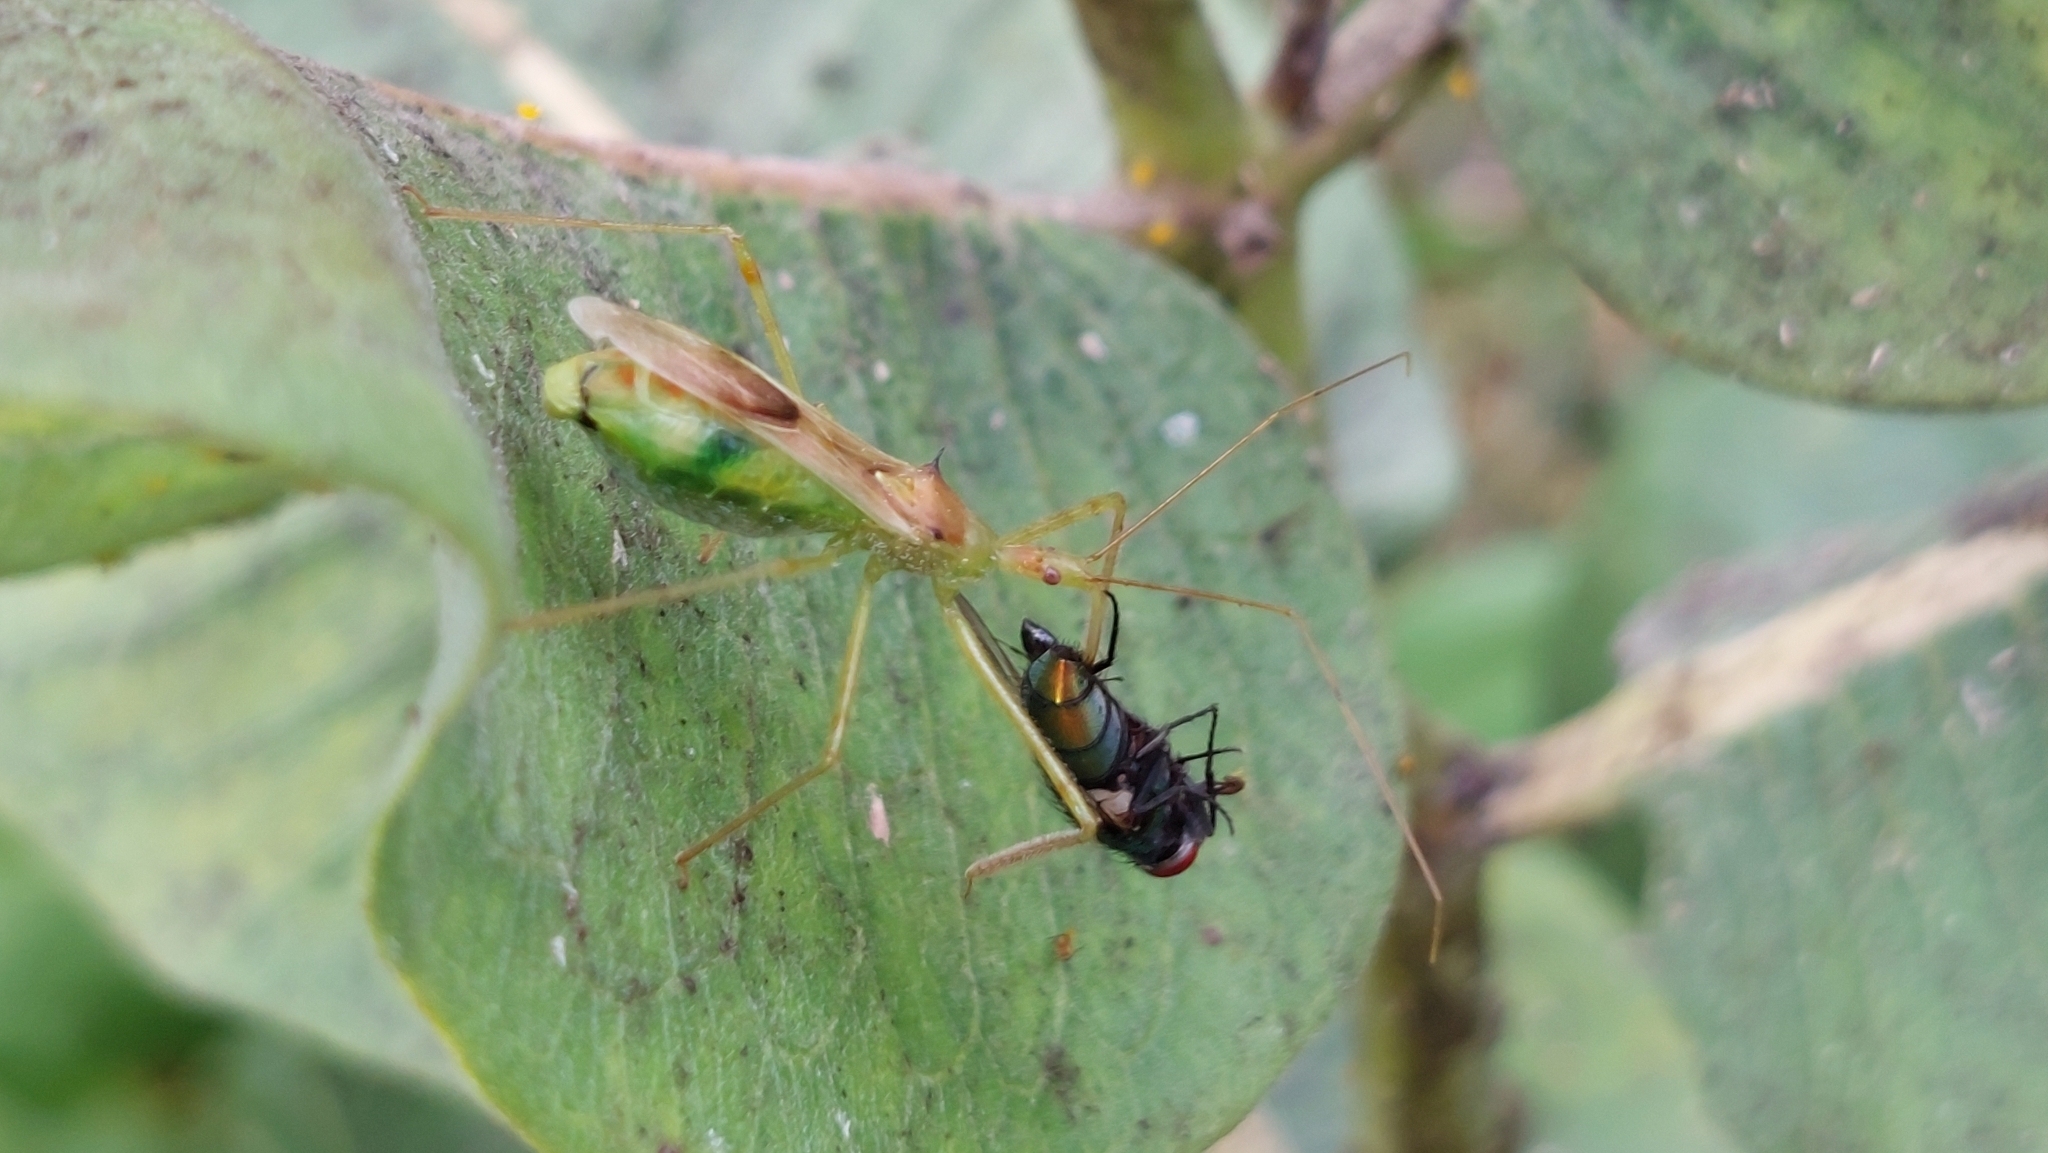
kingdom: Animalia
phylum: Arthropoda
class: Insecta
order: Hemiptera
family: Reduviidae
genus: Zelus
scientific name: Zelus luridus
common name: Pale green assassin bug
